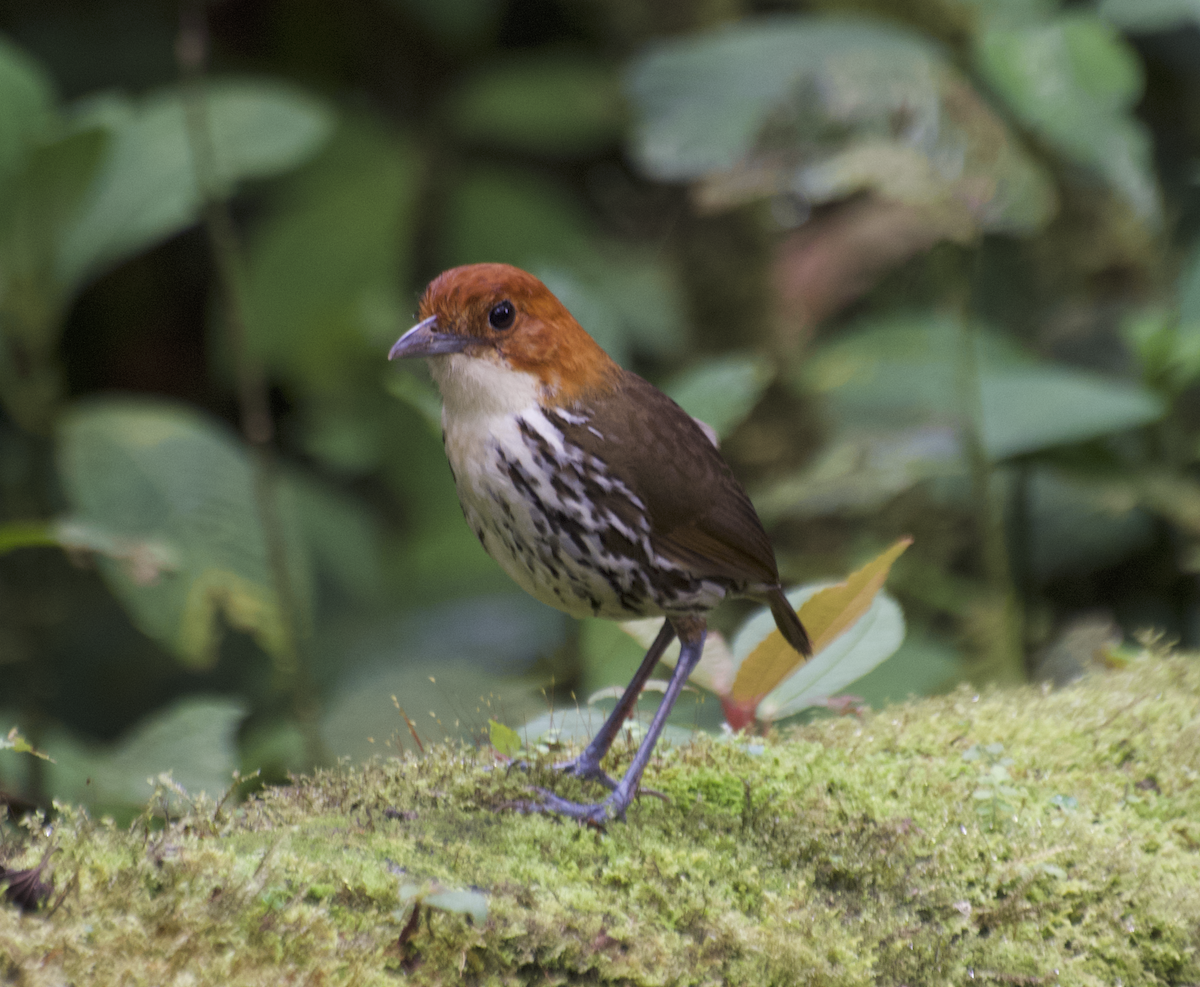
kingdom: Animalia
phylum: Chordata
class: Aves
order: Passeriformes
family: Grallariidae
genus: Grallaria
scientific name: Grallaria ruficapilla
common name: Chestnut-crowned antpitta
